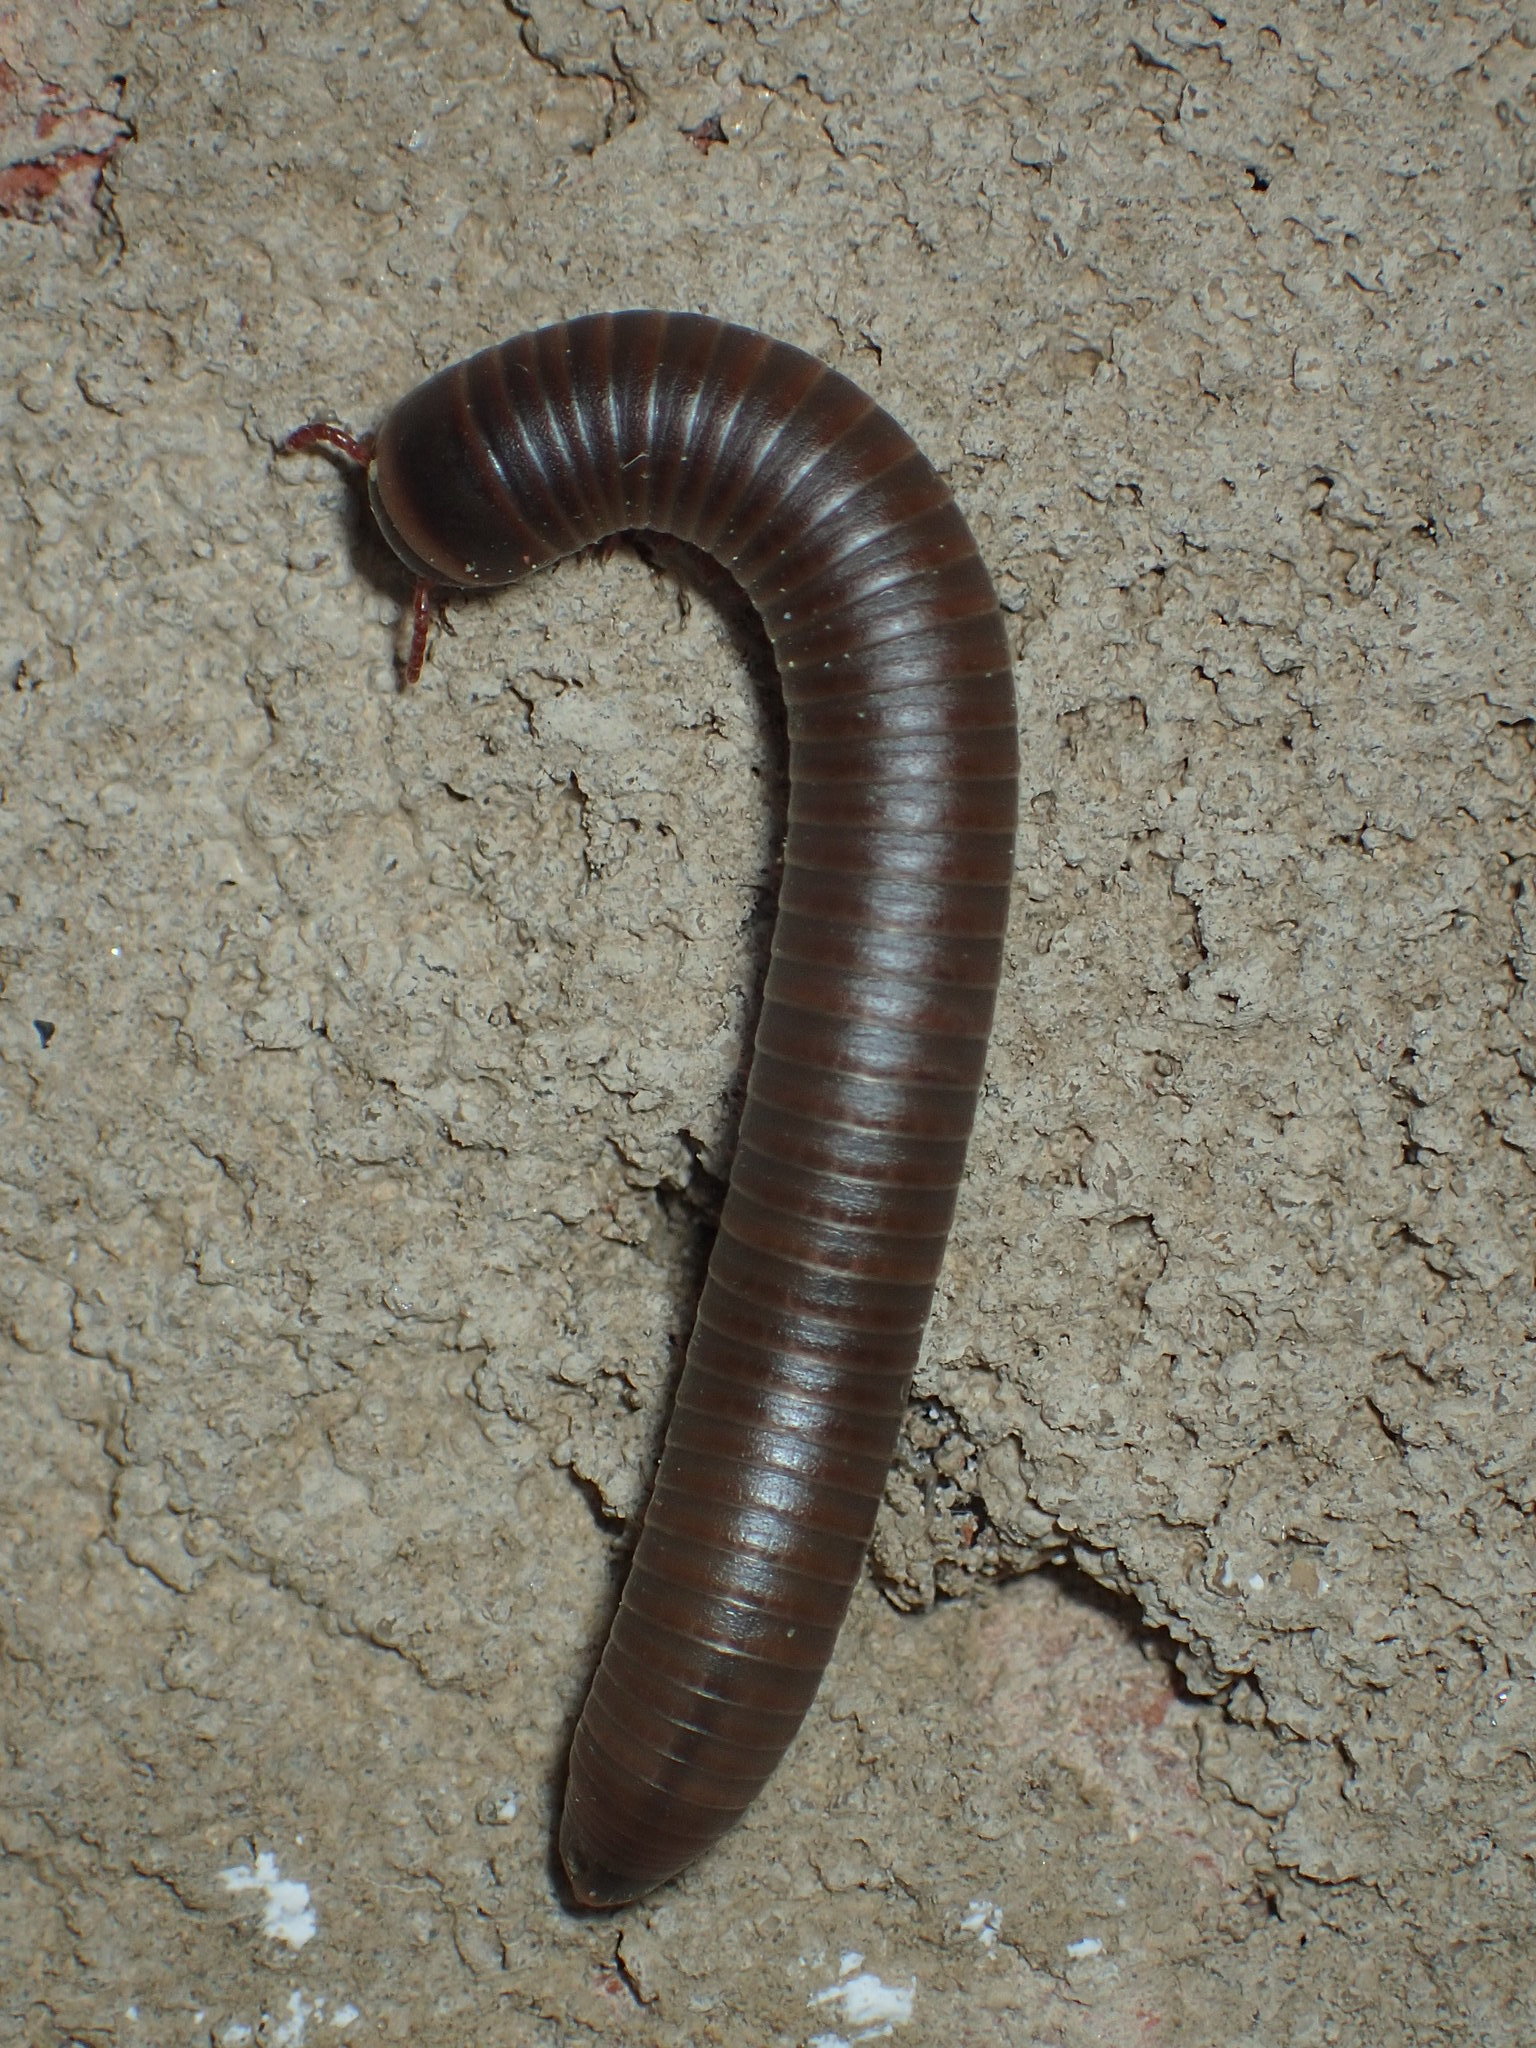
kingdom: Animalia
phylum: Arthropoda
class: Diplopoda
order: Spirobolida
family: Spirobolidae
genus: Narceus
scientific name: Narceus
